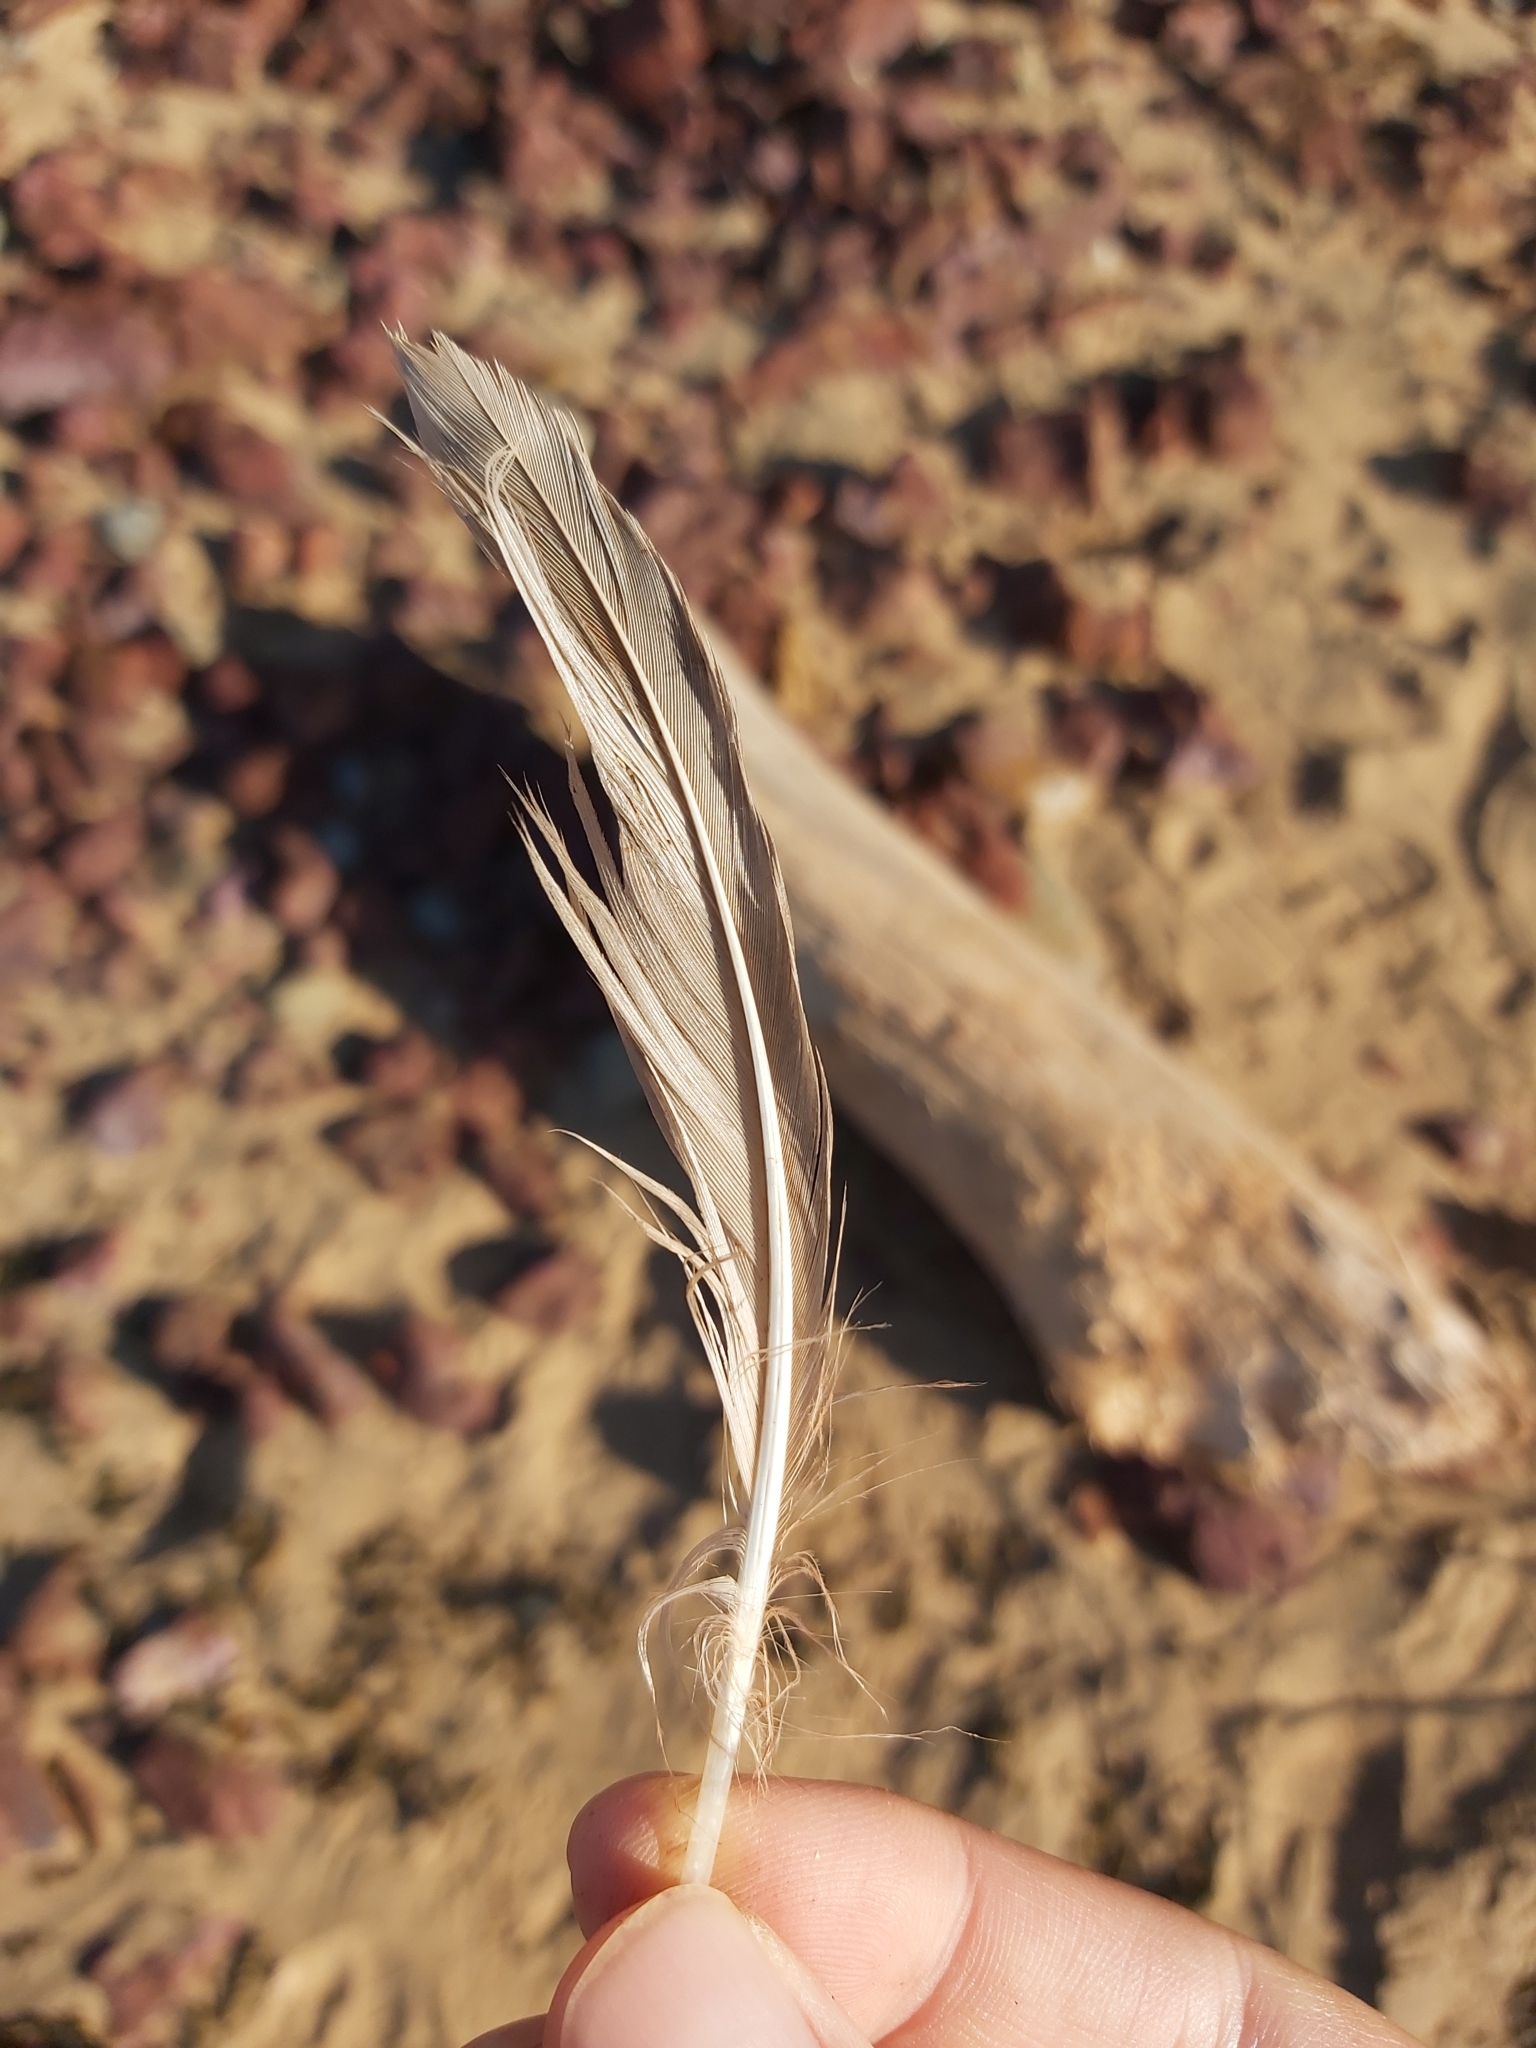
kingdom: Animalia
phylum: Chordata
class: Aves
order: Charadriiformes
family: Laridae
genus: Chroicocephalus
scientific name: Chroicocephalus novaehollandiae
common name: Silver gull
